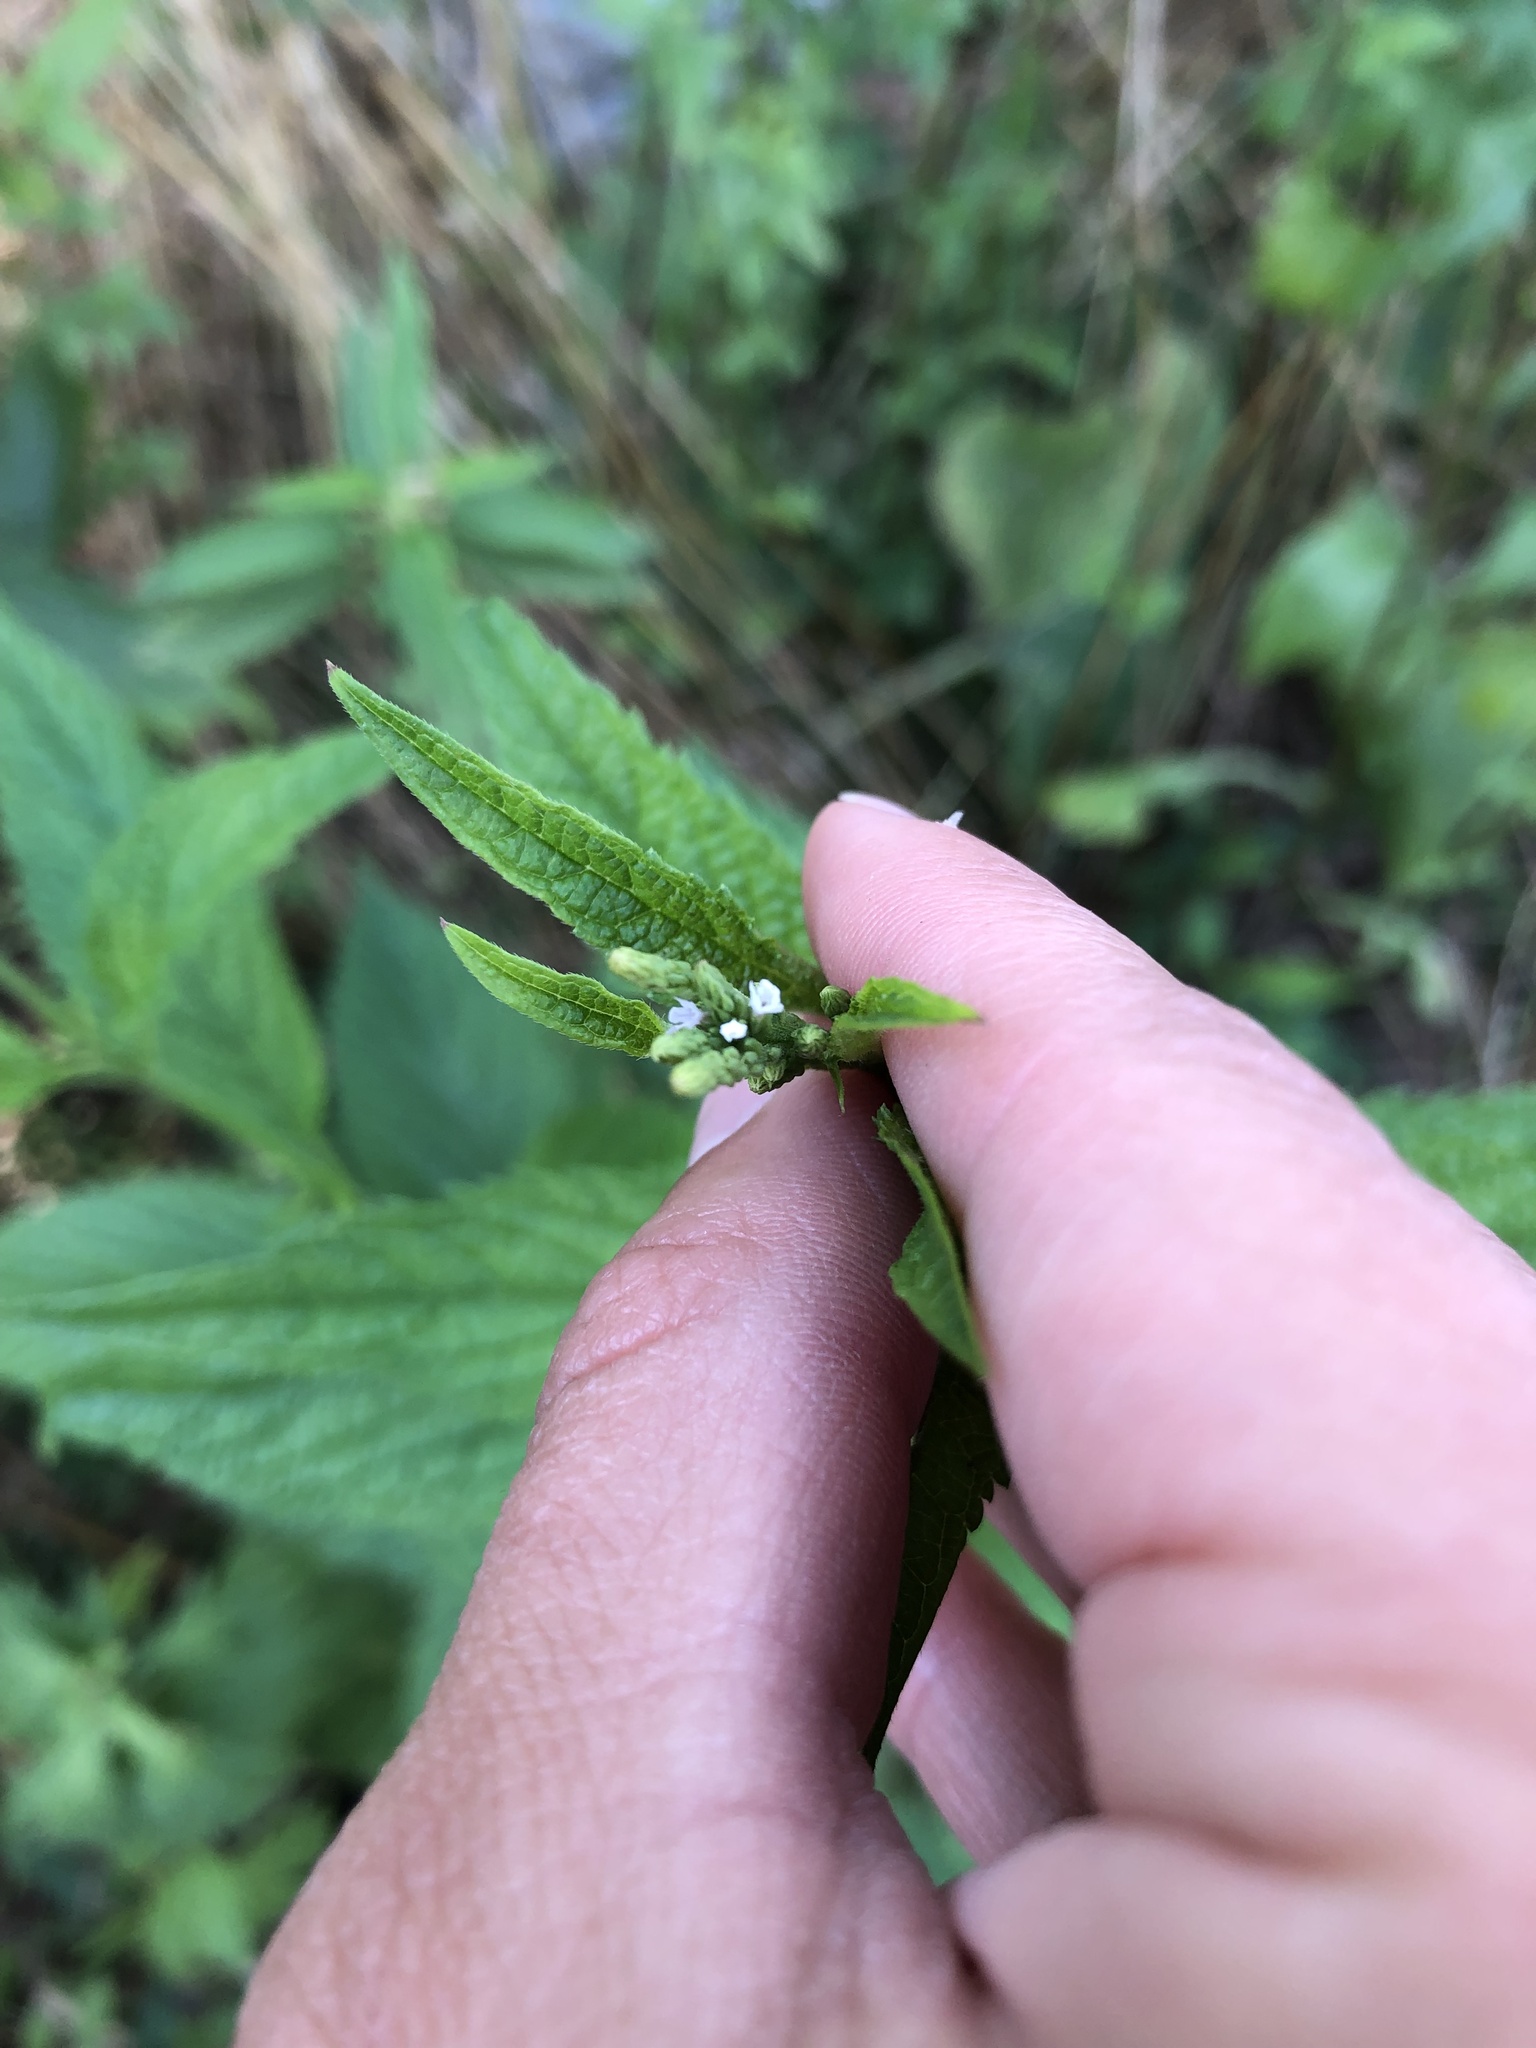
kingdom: Plantae
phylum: Tracheophyta
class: Magnoliopsida
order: Lamiales
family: Verbenaceae
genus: Verbena
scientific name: Verbena urticifolia
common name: Nettle-leaved vervain
